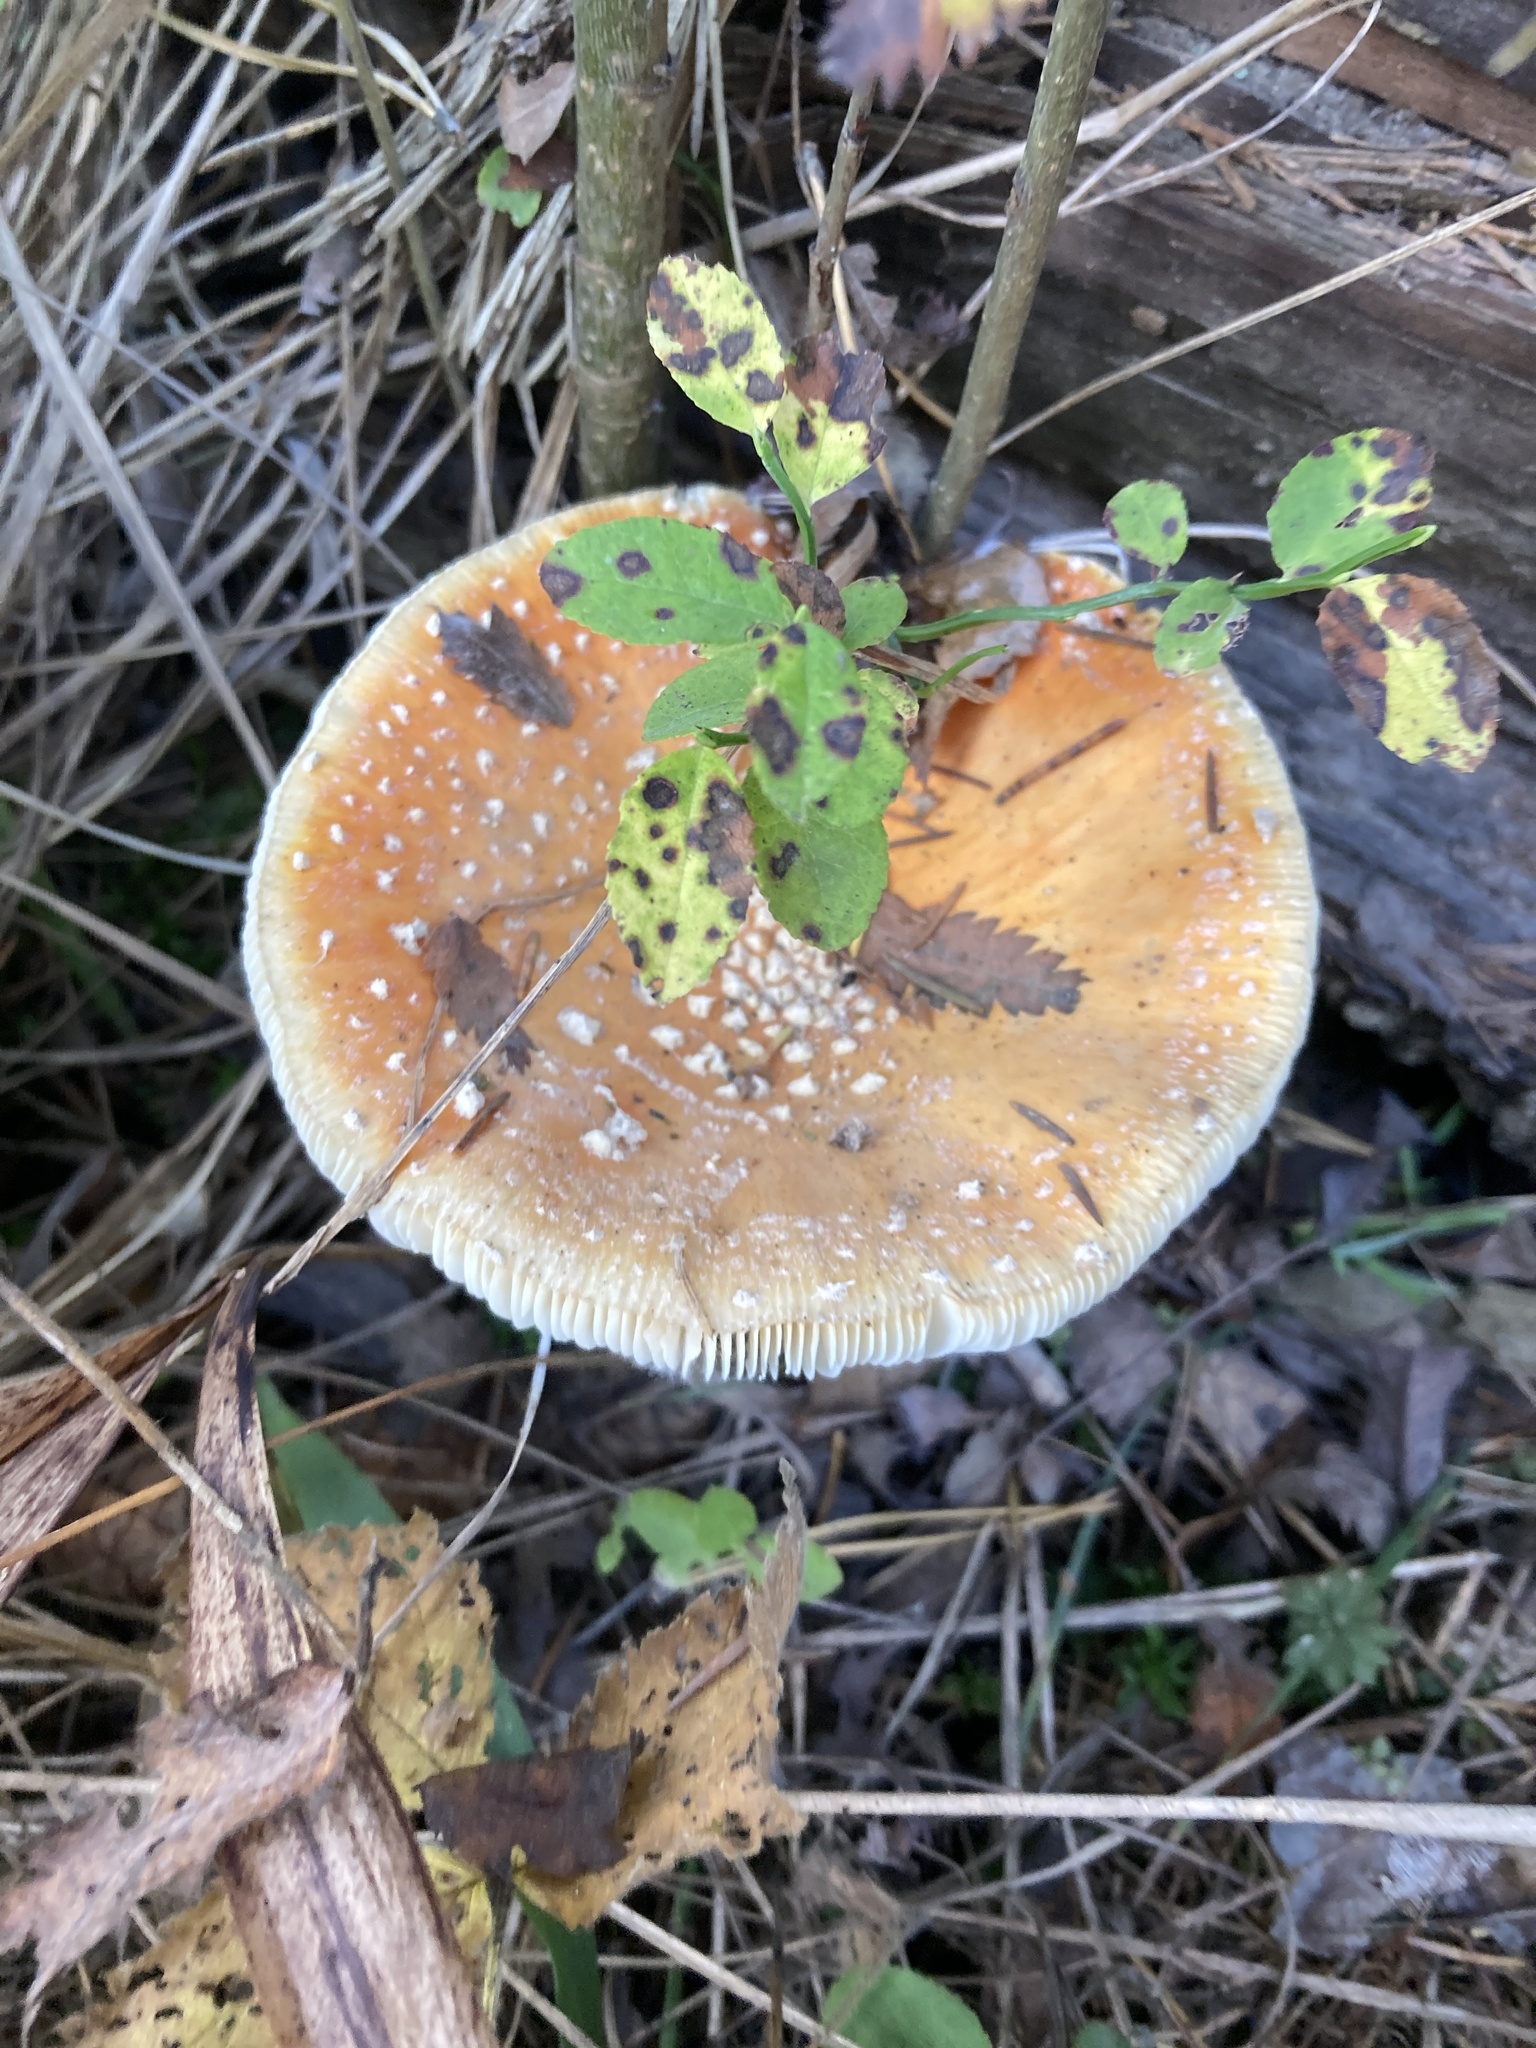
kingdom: Fungi
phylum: Basidiomycota
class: Agaricomycetes
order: Agaricales
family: Amanitaceae
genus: Amanita
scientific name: Amanita muscaria
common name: Fly agaric
